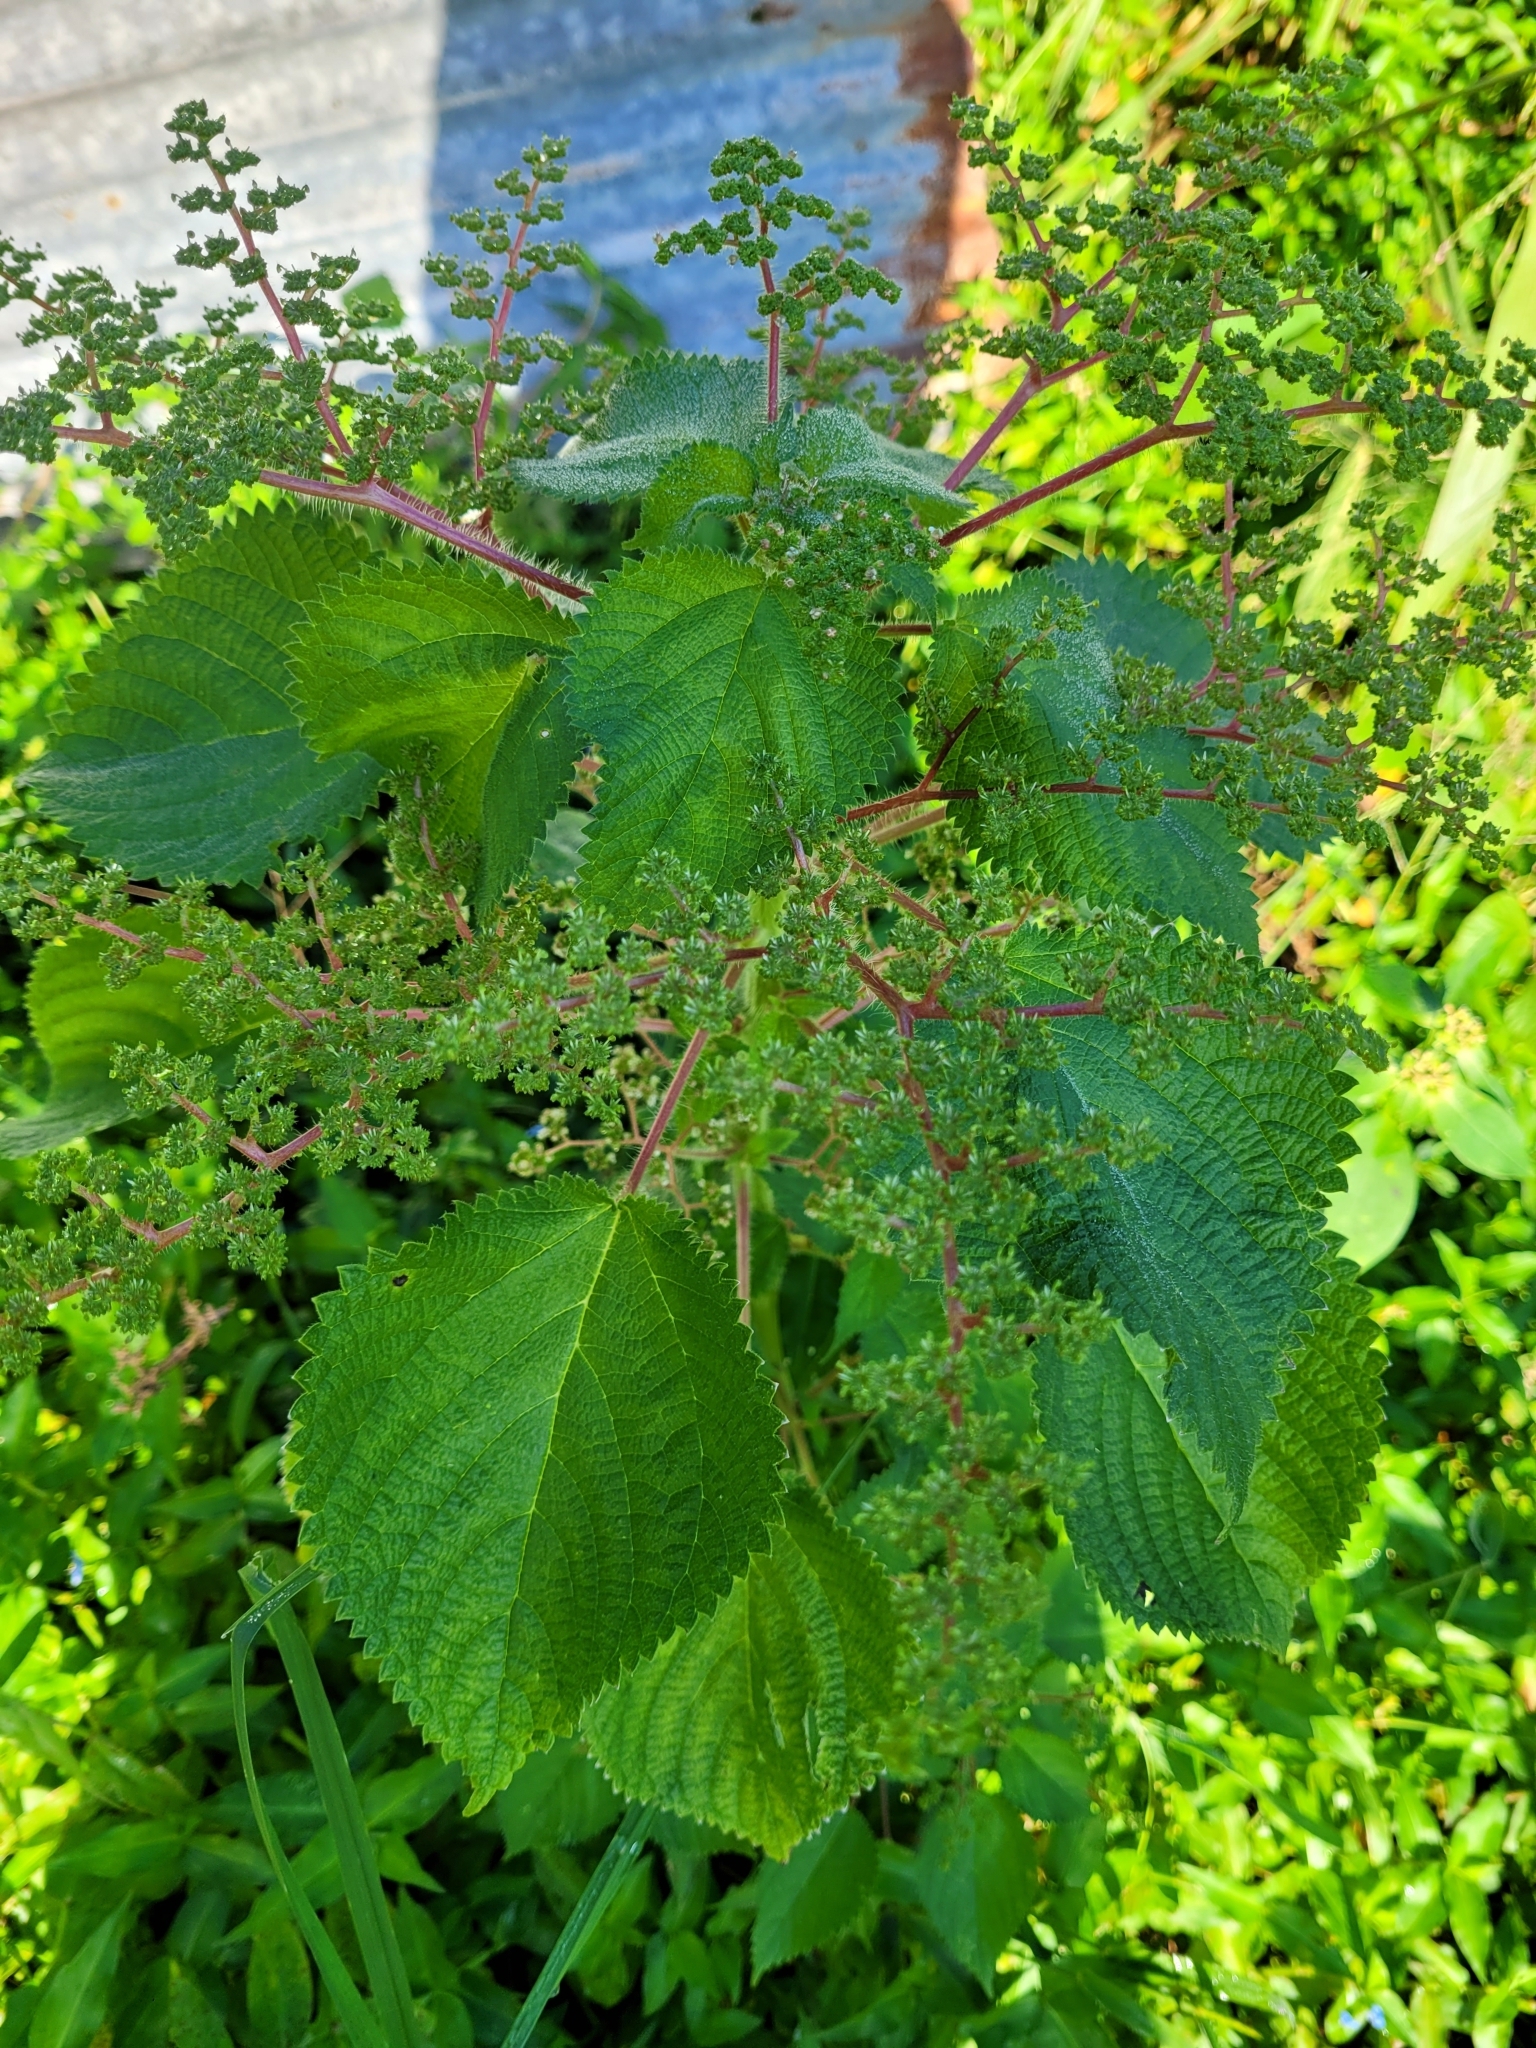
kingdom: Plantae
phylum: Tracheophyta
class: Magnoliopsida
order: Rosales
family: Urticaceae
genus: Laportea
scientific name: Laportea aestuans
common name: West indian woodnettle
